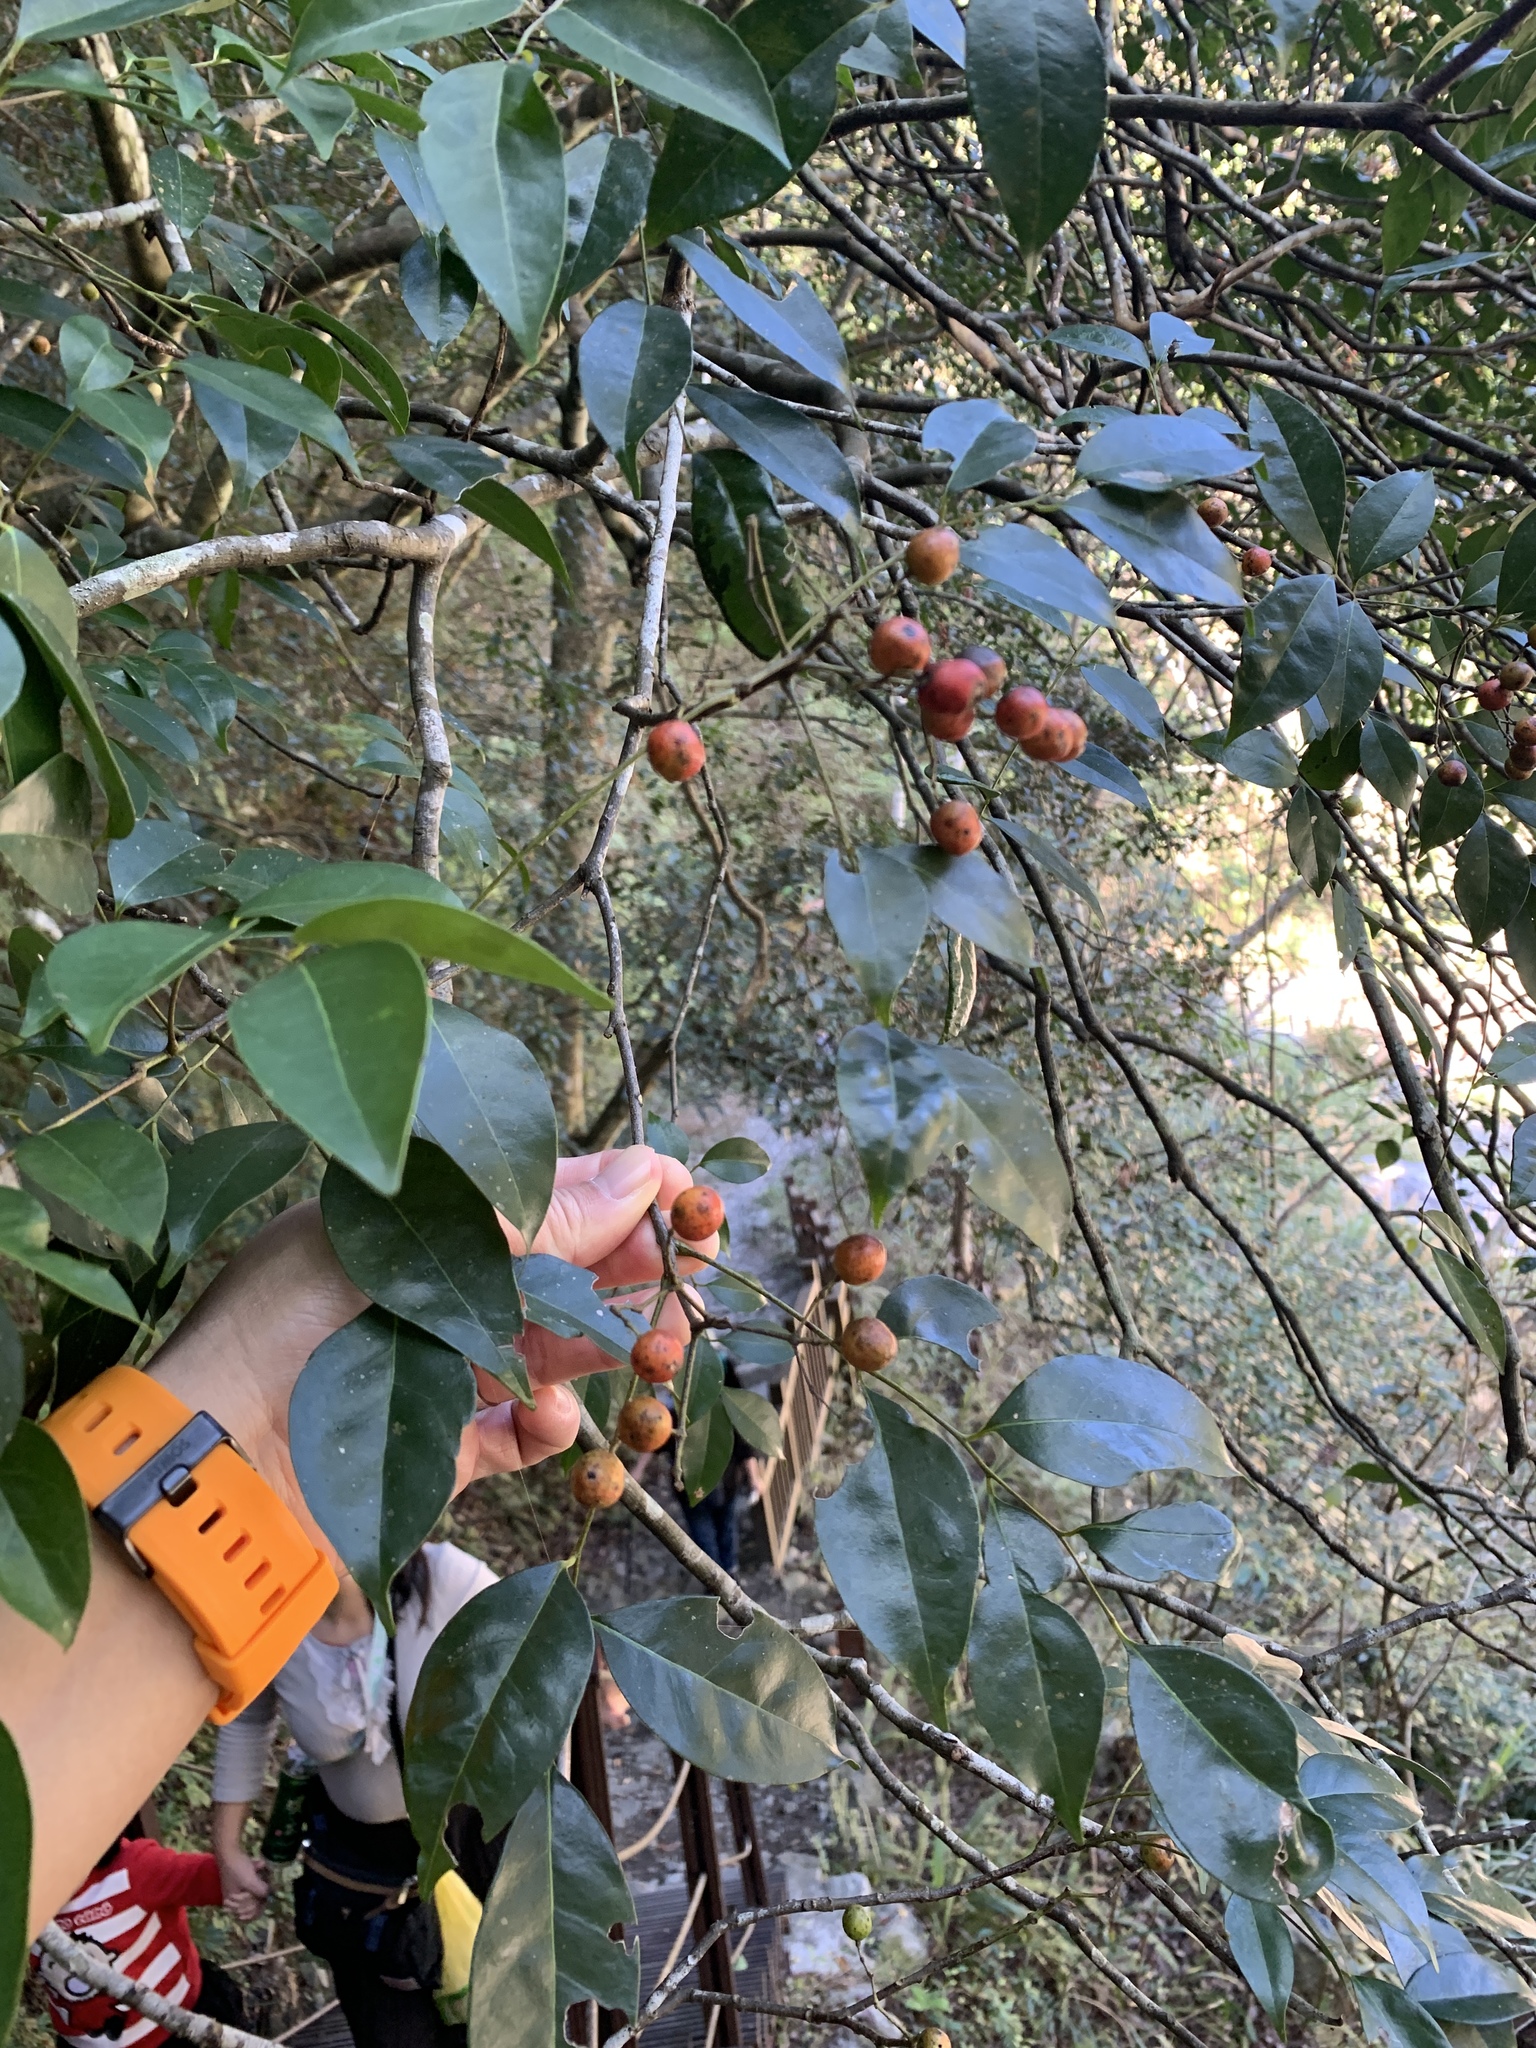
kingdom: Plantae
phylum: Tracheophyta
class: Magnoliopsida
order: Sapindales
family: Rutaceae
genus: Murraya
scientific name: Murraya euchrestifolia
